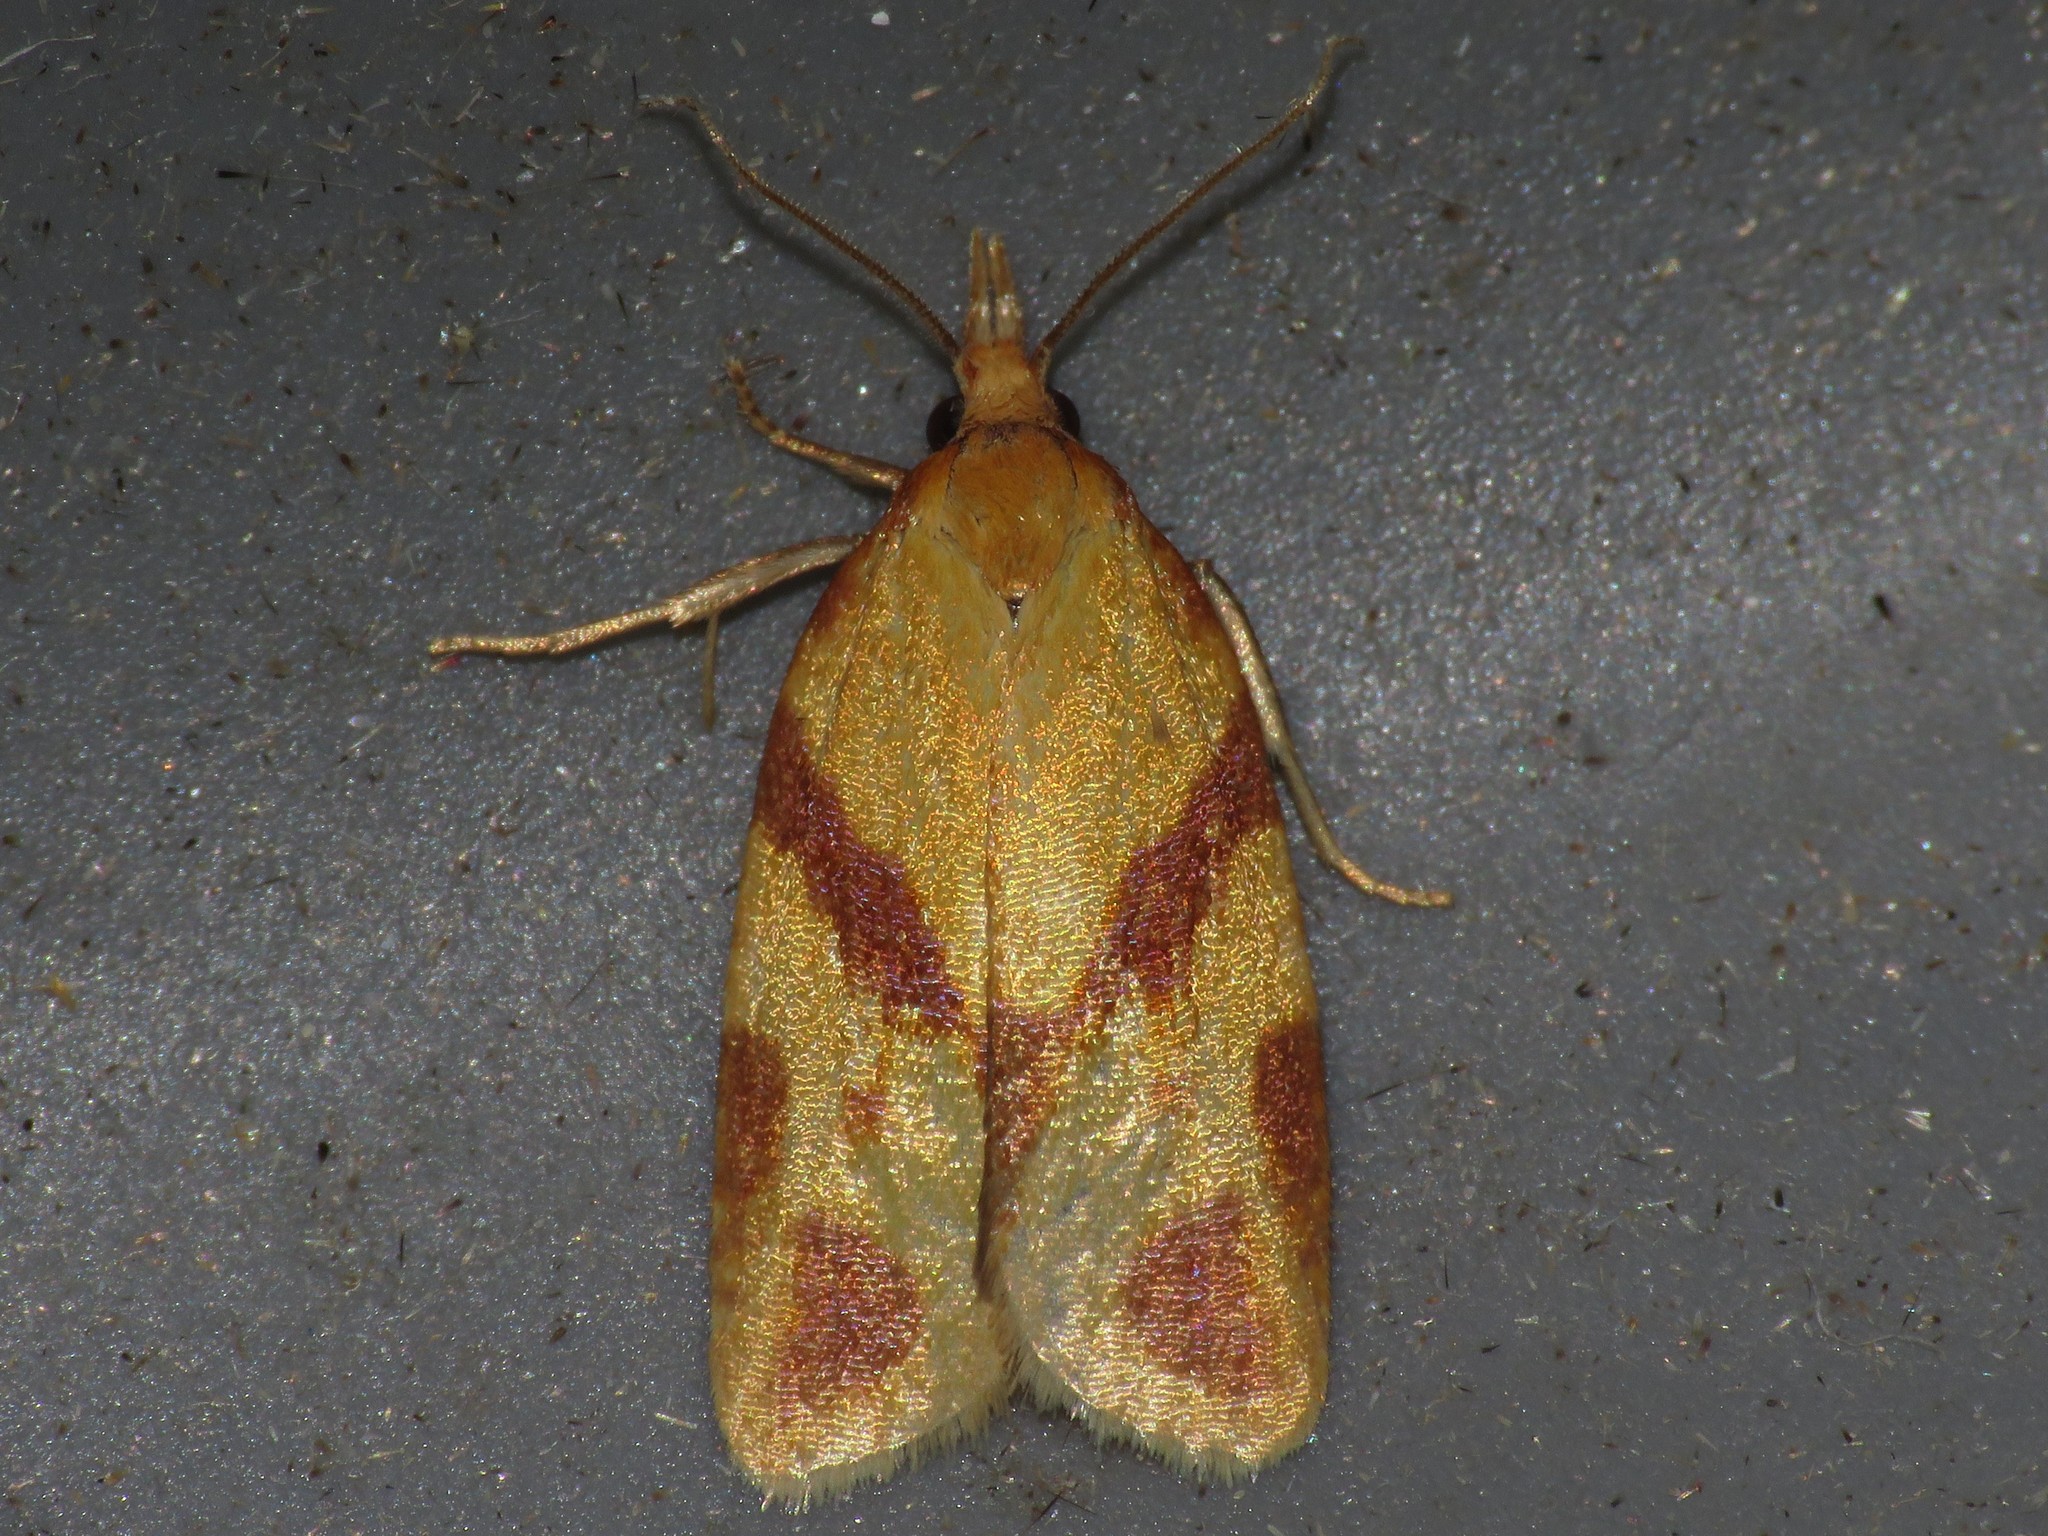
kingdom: Animalia
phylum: Arthropoda
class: Insecta
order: Lepidoptera
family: Tortricidae
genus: Sparganothis
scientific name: Sparganothis unifasciana
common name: One-lined sparganothis moth
